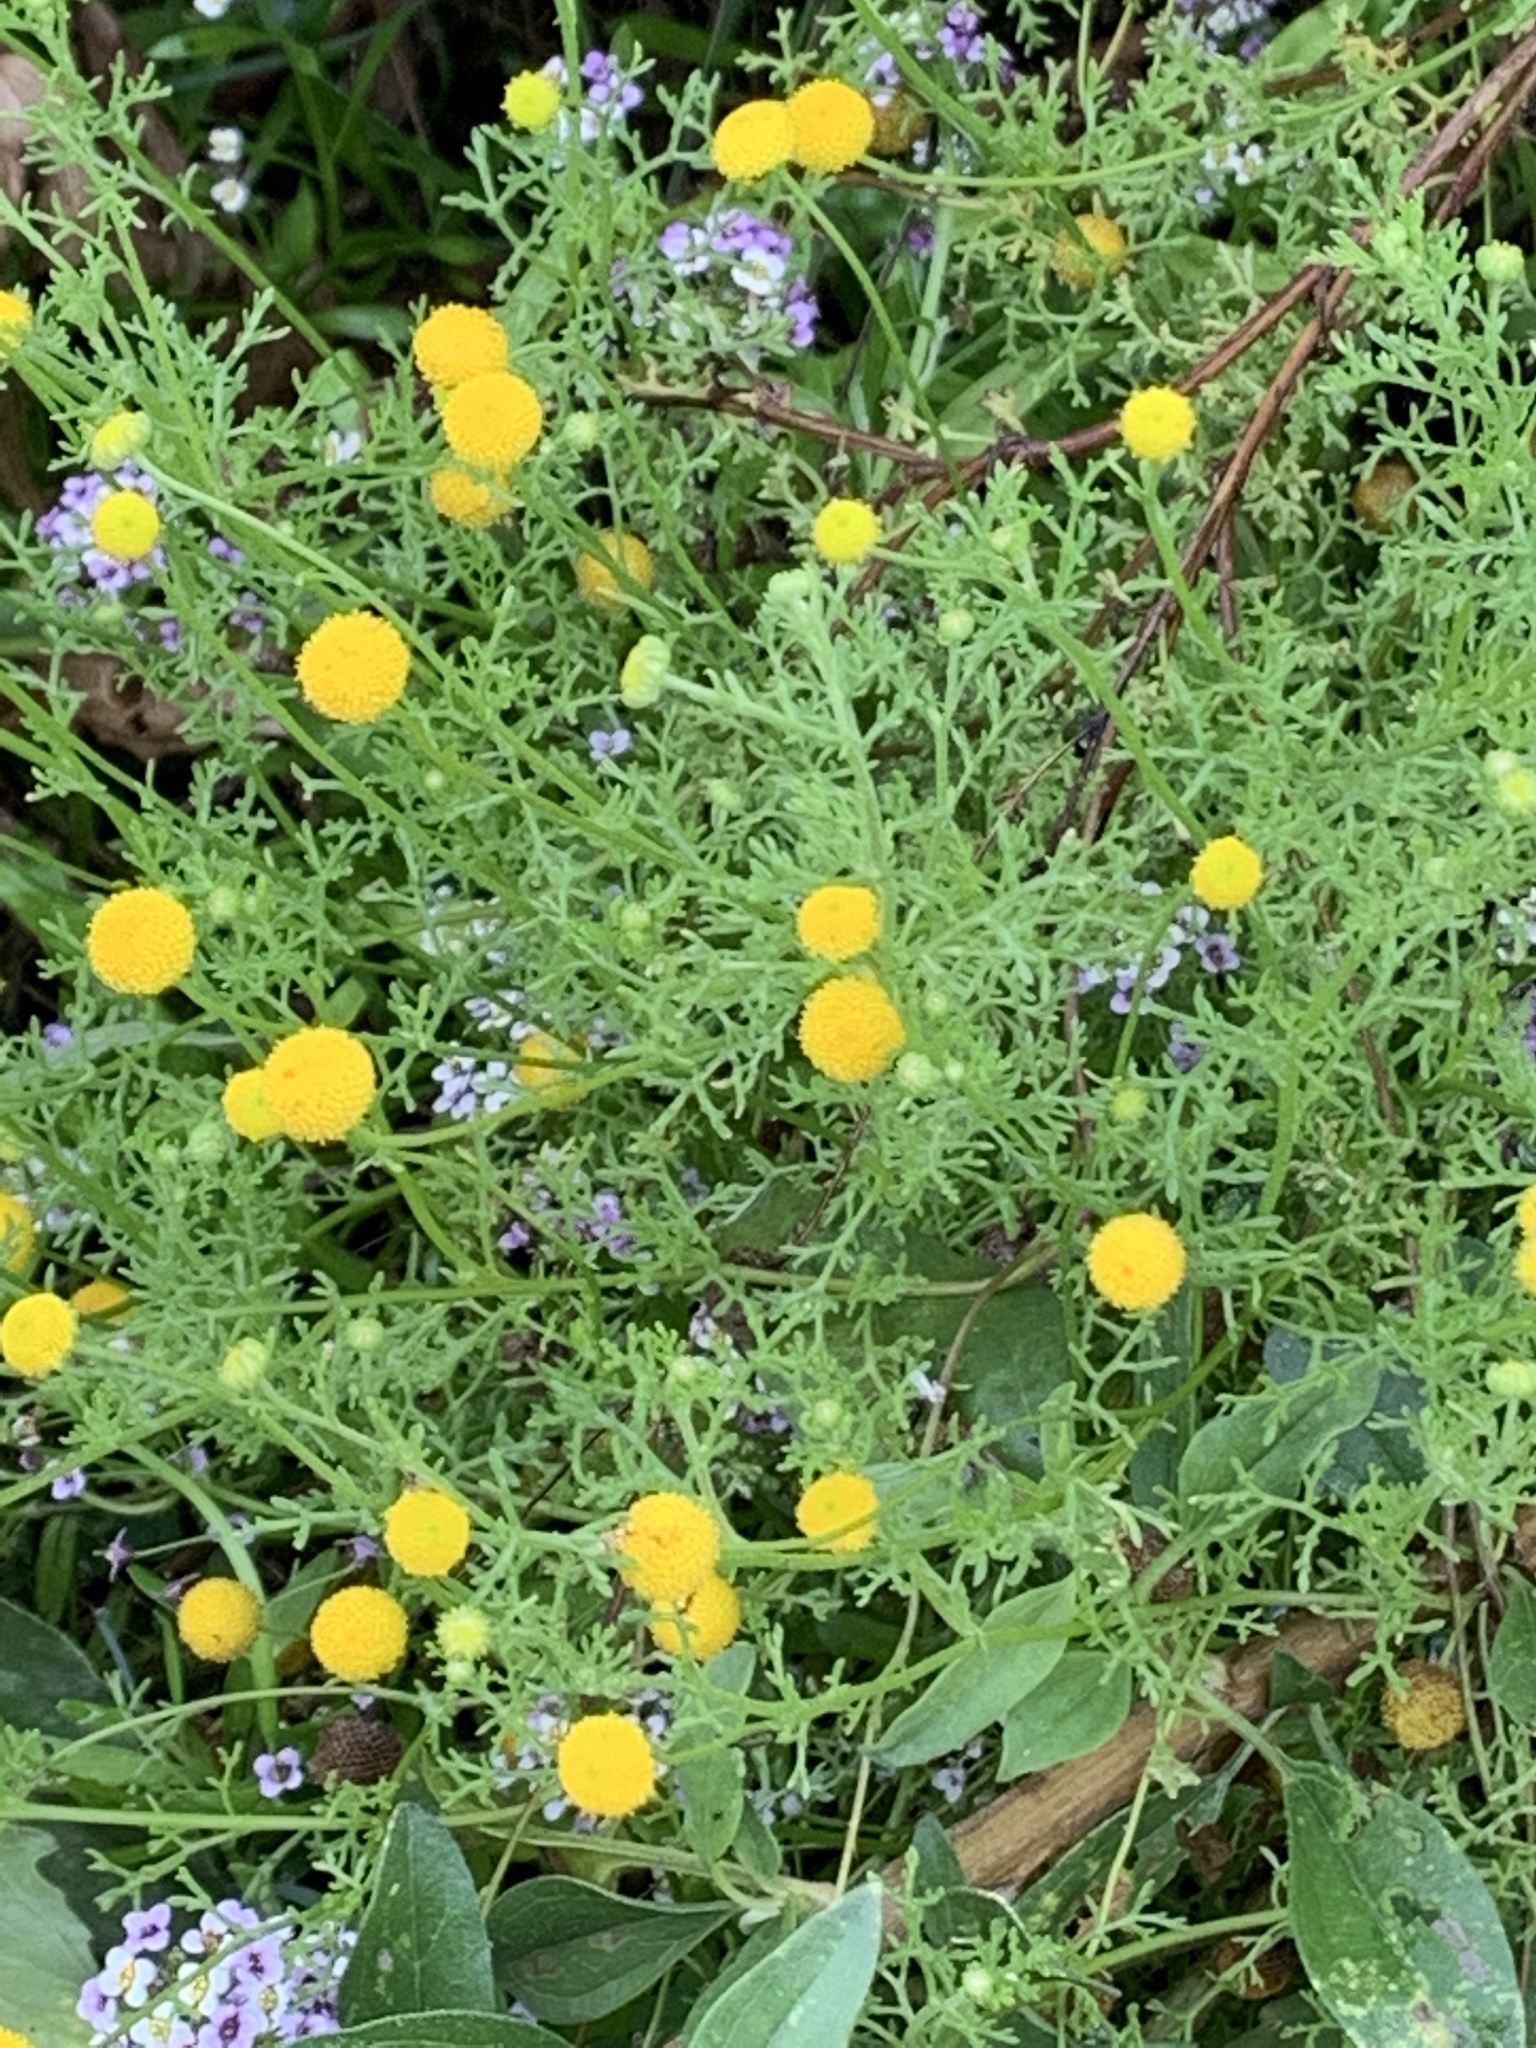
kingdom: Plantae
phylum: Tracheophyta
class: Magnoliopsida
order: Asterales
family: Asteraceae
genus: Oncosiphon
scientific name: Oncosiphon pilulifer
